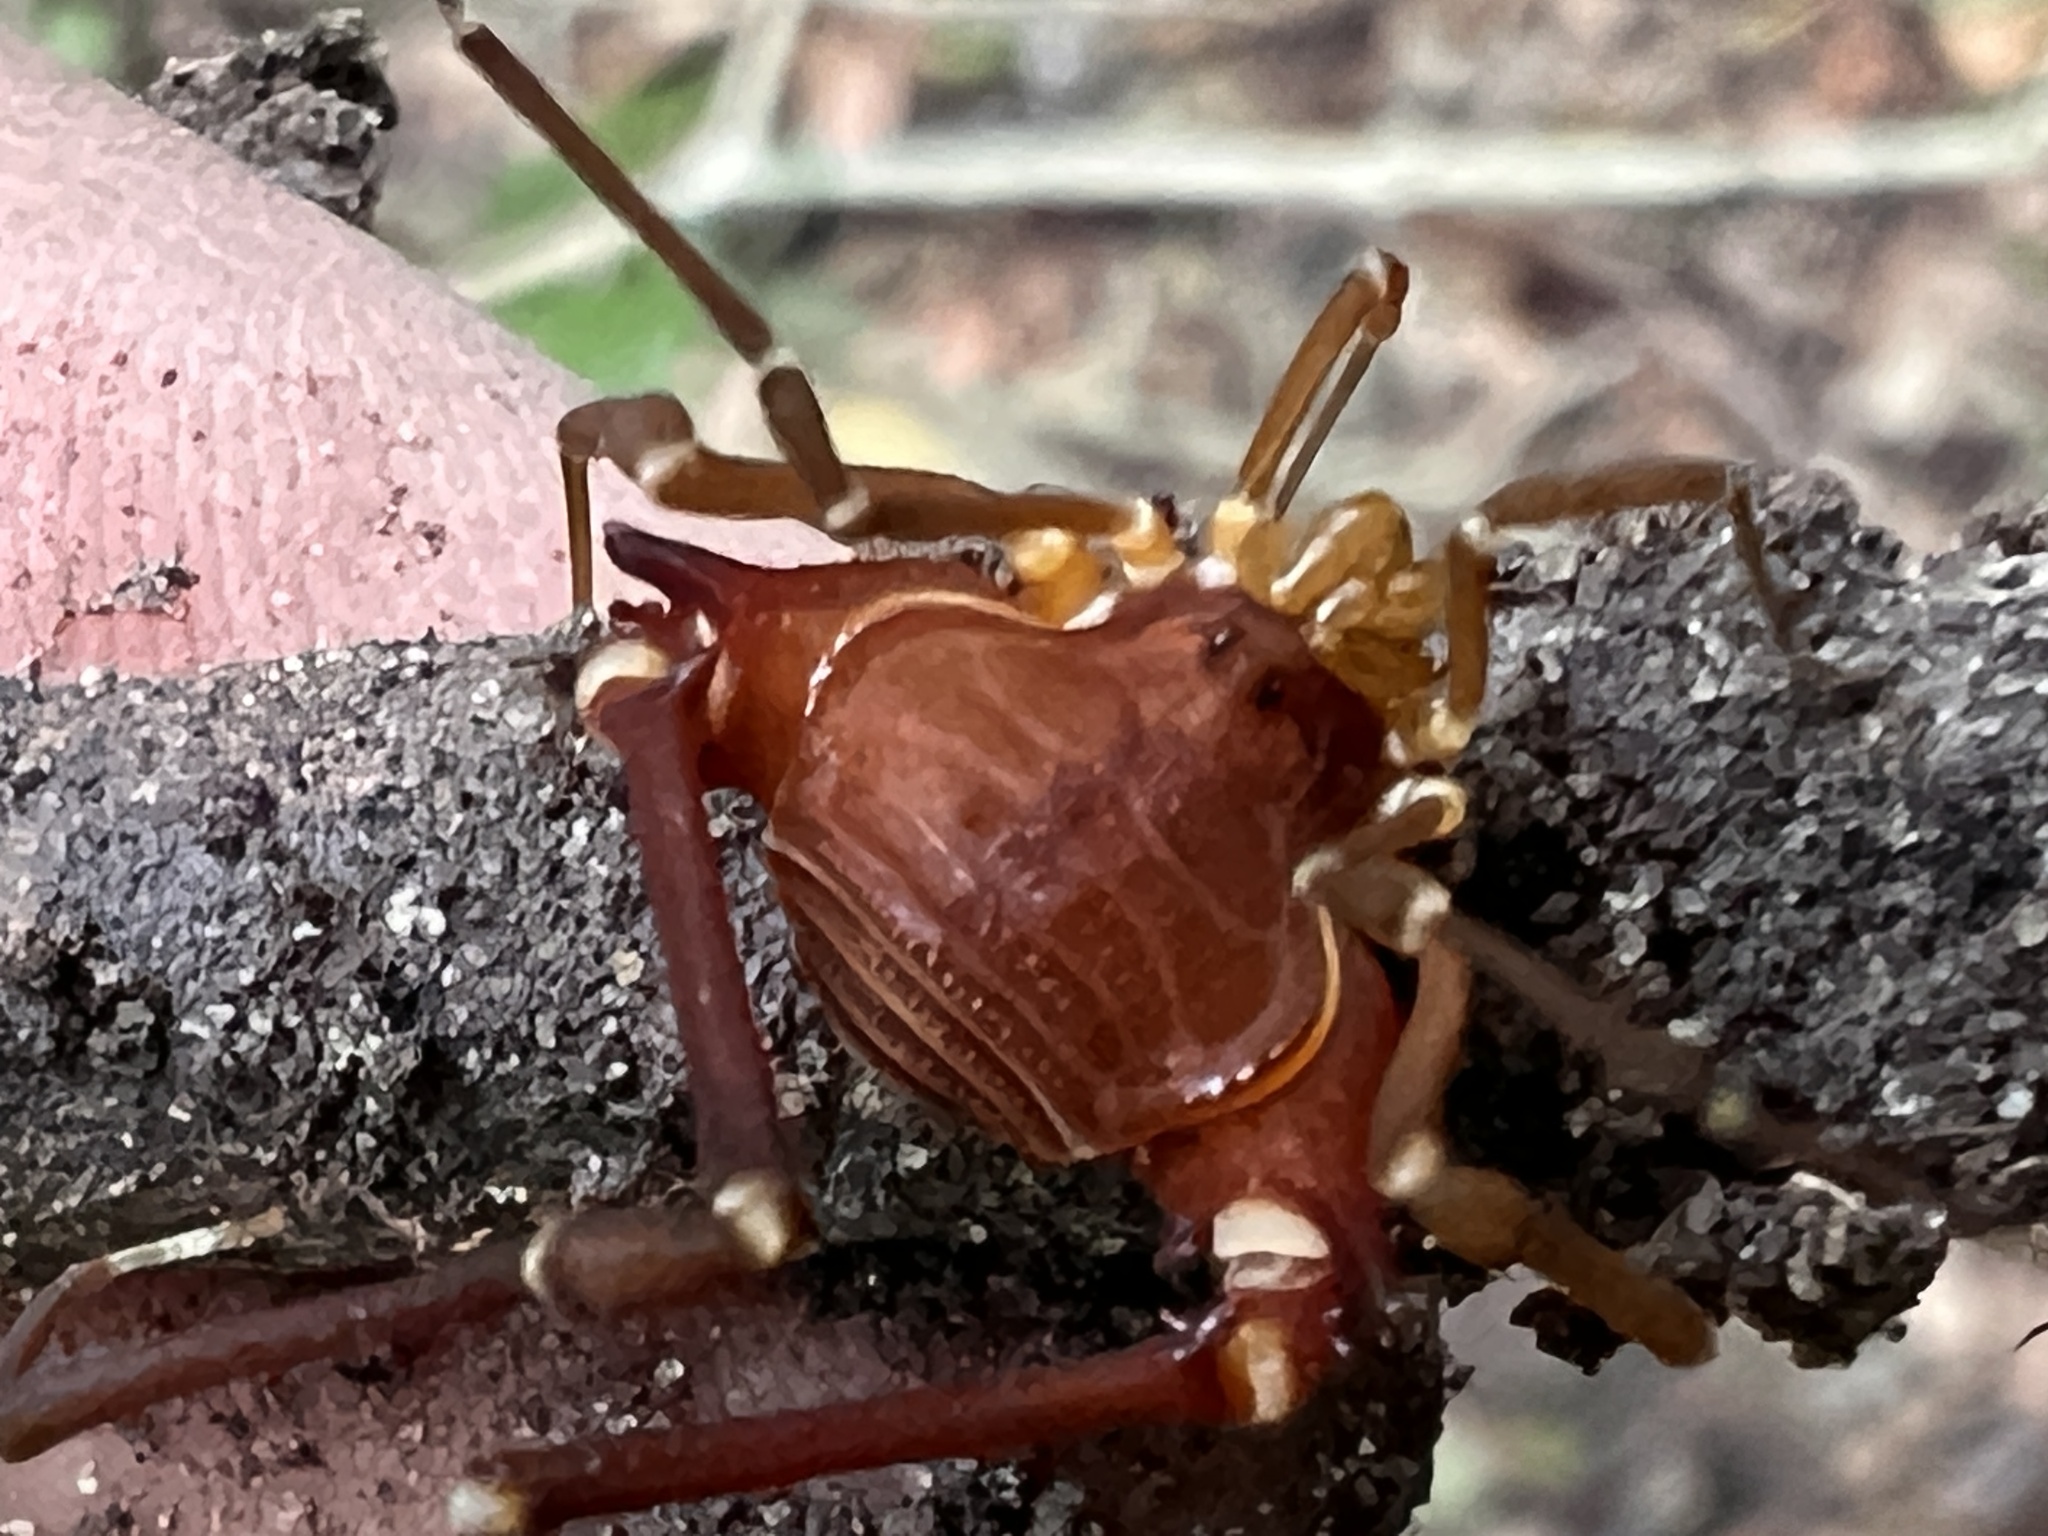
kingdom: Animalia
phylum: Arthropoda
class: Arachnida
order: Opiliones
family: Gonyleptidae
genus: Krateromaspis
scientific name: Krateromaspis dilatata
